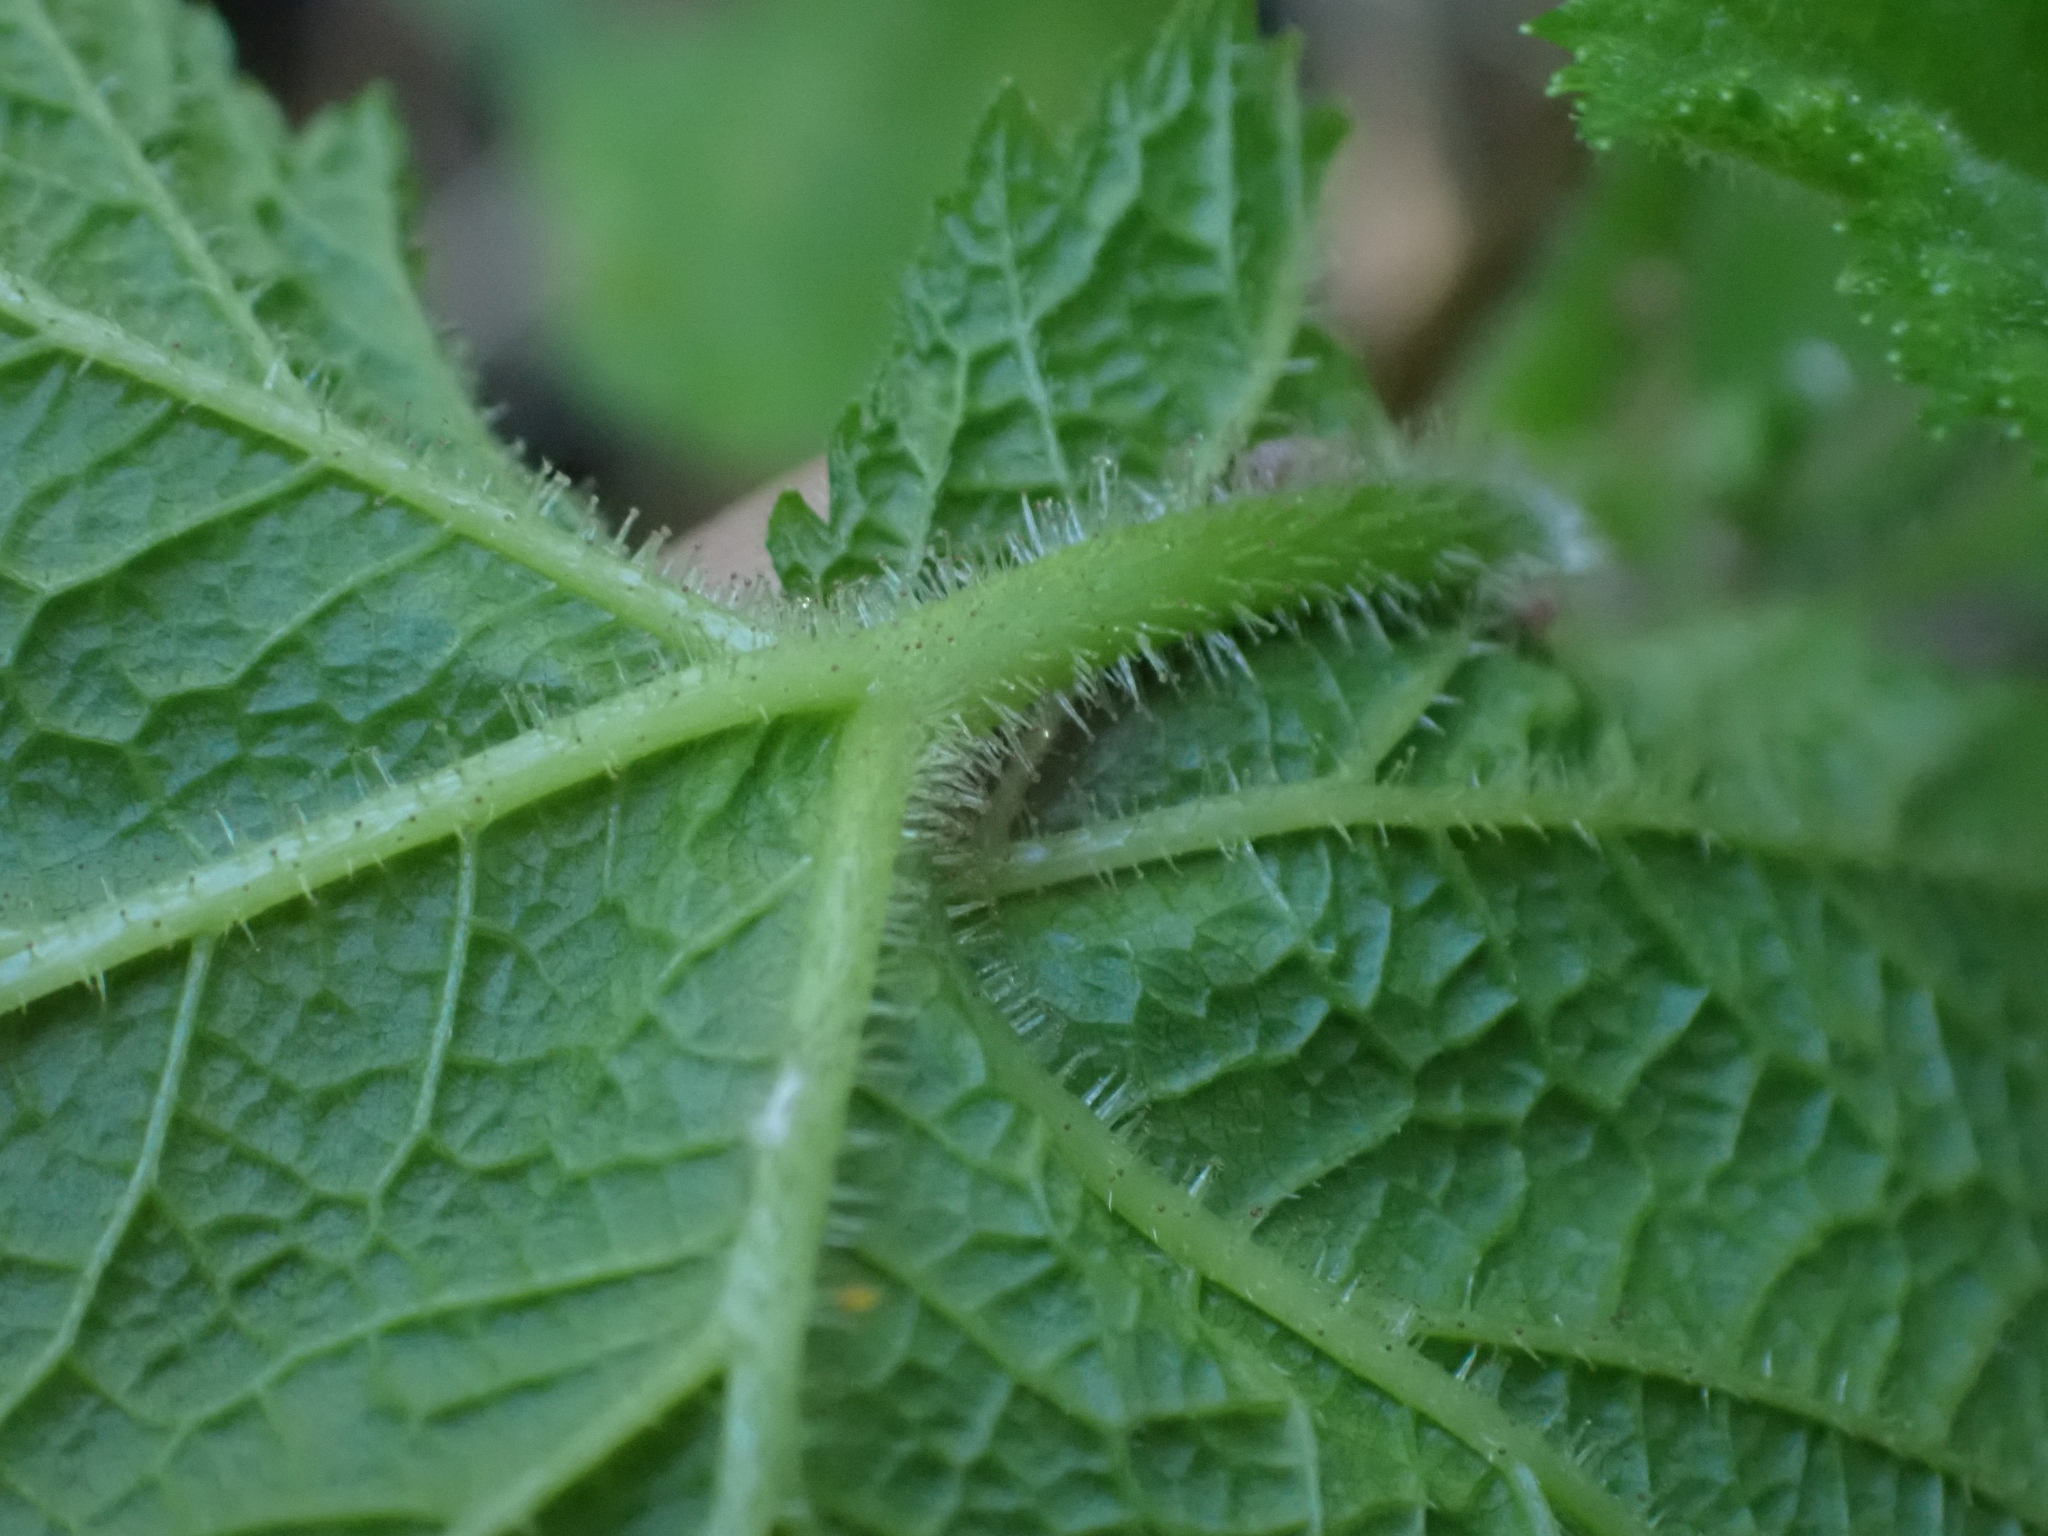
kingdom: Plantae
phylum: Tracheophyta
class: Magnoliopsida
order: Rosales
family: Rosaceae
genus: Rubus
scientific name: Rubus parviflorus
